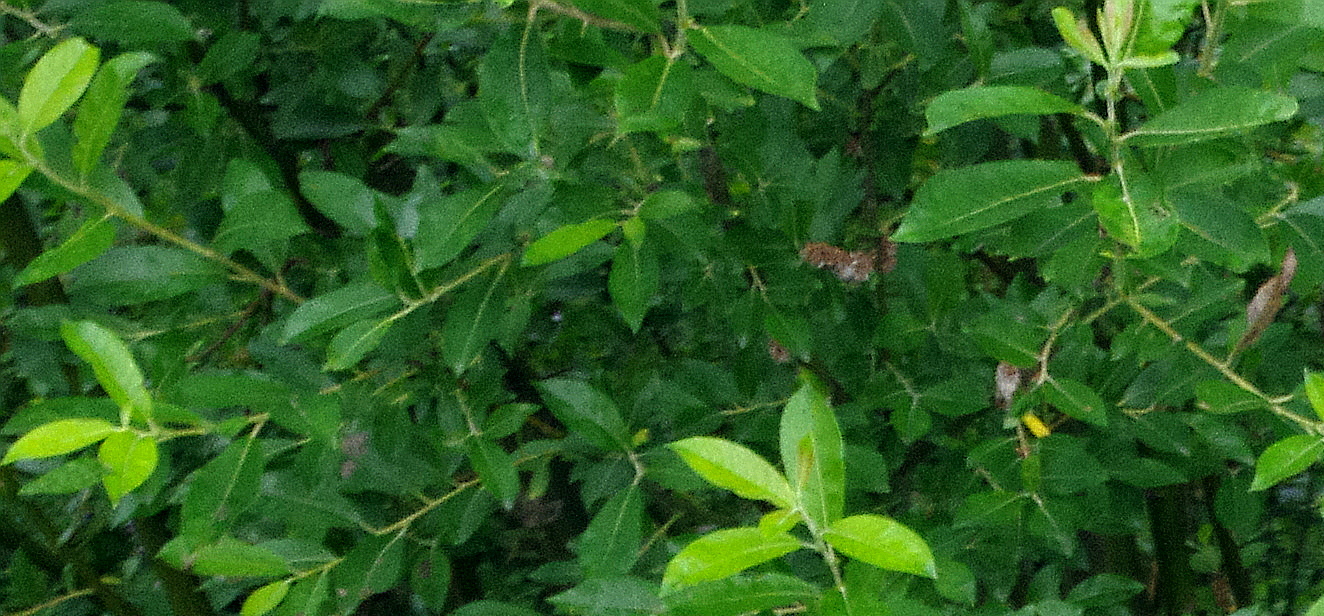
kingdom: Plantae
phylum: Tracheophyta
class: Magnoliopsida
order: Malpighiales
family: Salicaceae
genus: Salix
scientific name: Salix myrsinifolia
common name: Dark-leaved willow
